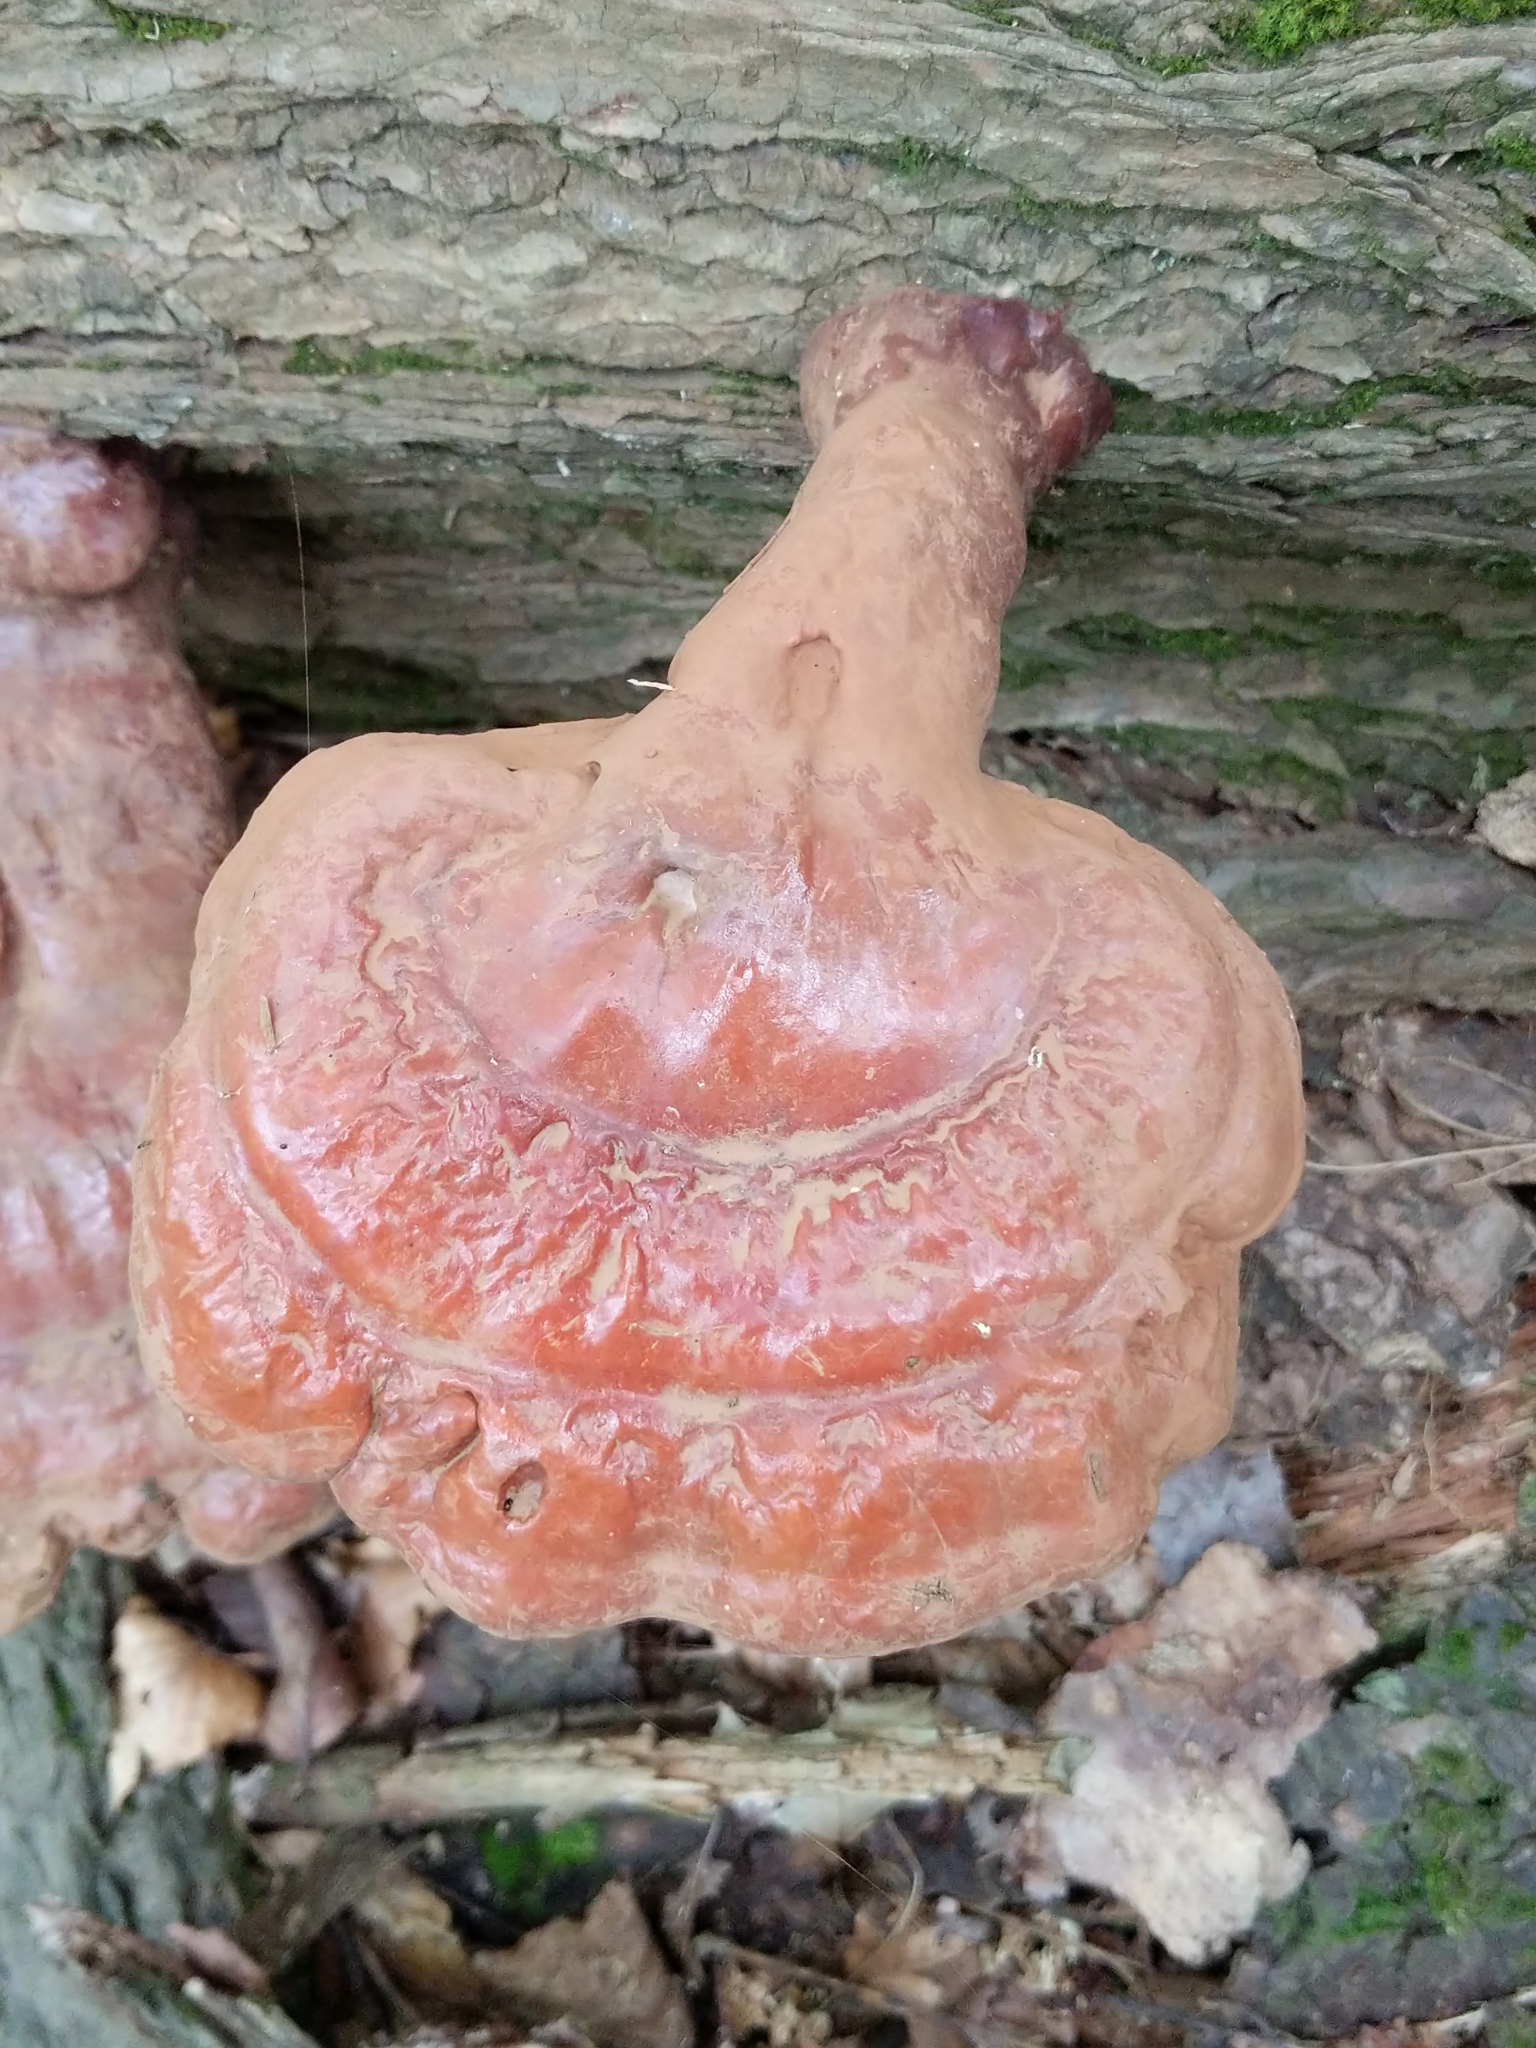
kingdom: Fungi
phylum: Basidiomycota
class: Agaricomycetes
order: Polyporales
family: Polyporaceae
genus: Ganoderma
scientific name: Ganoderma tsugae
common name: Hemlock varnish shelf
